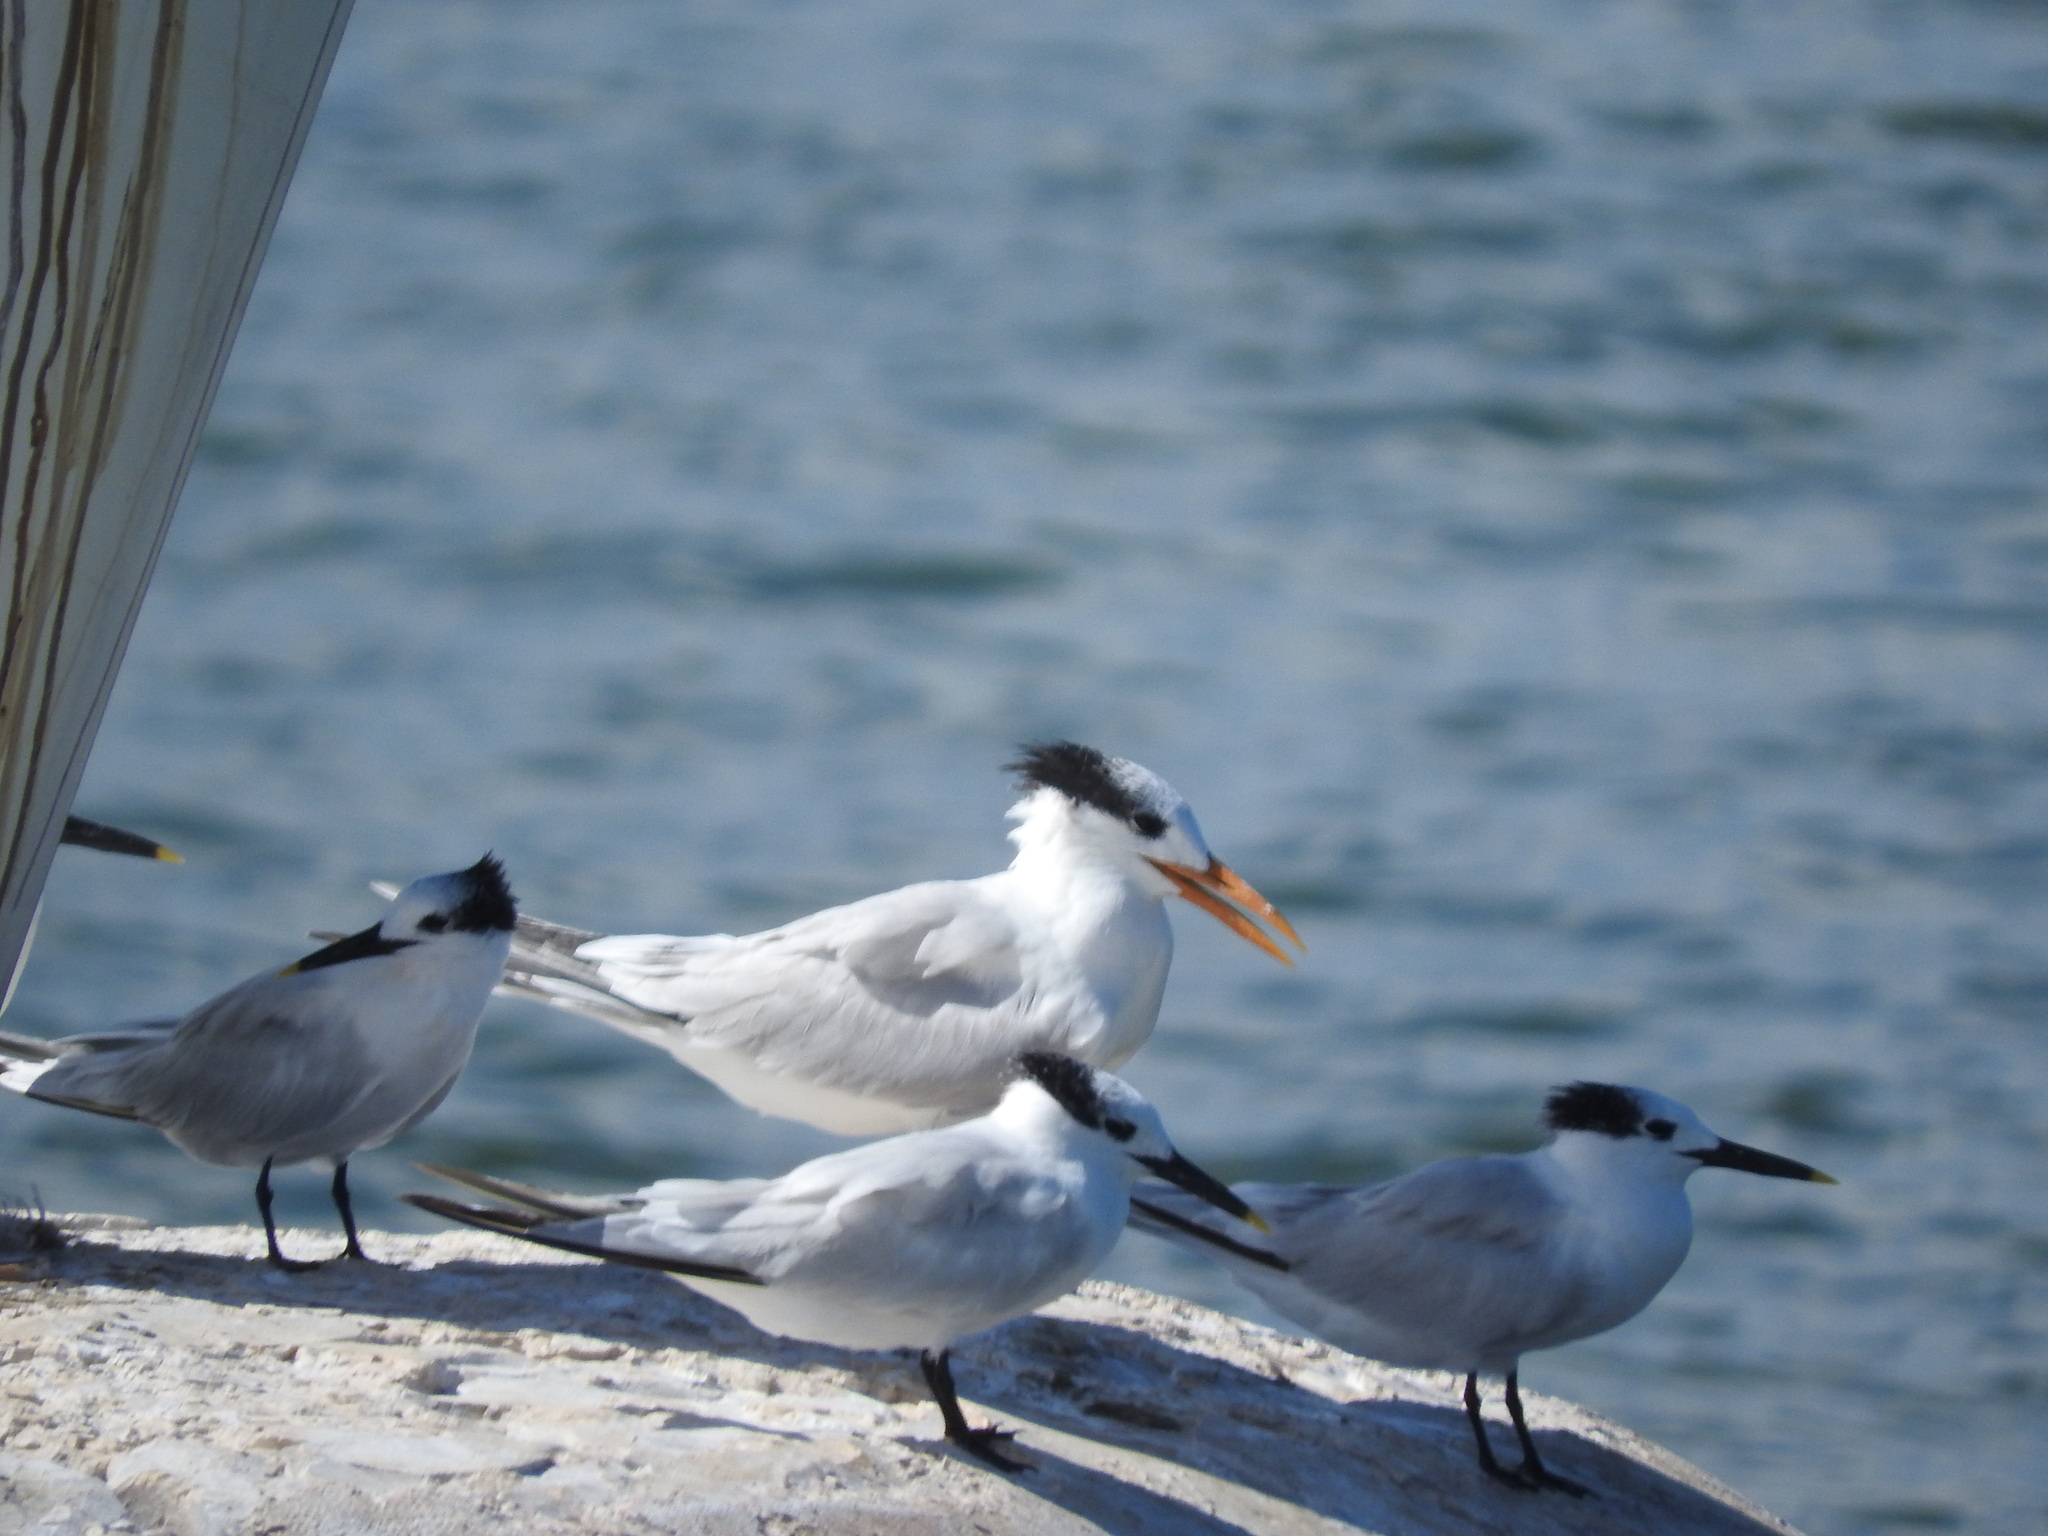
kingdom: Animalia
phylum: Chordata
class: Aves
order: Charadriiformes
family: Laridae
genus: Thalasseus
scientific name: Thalasseus maximus
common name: Royal tern
